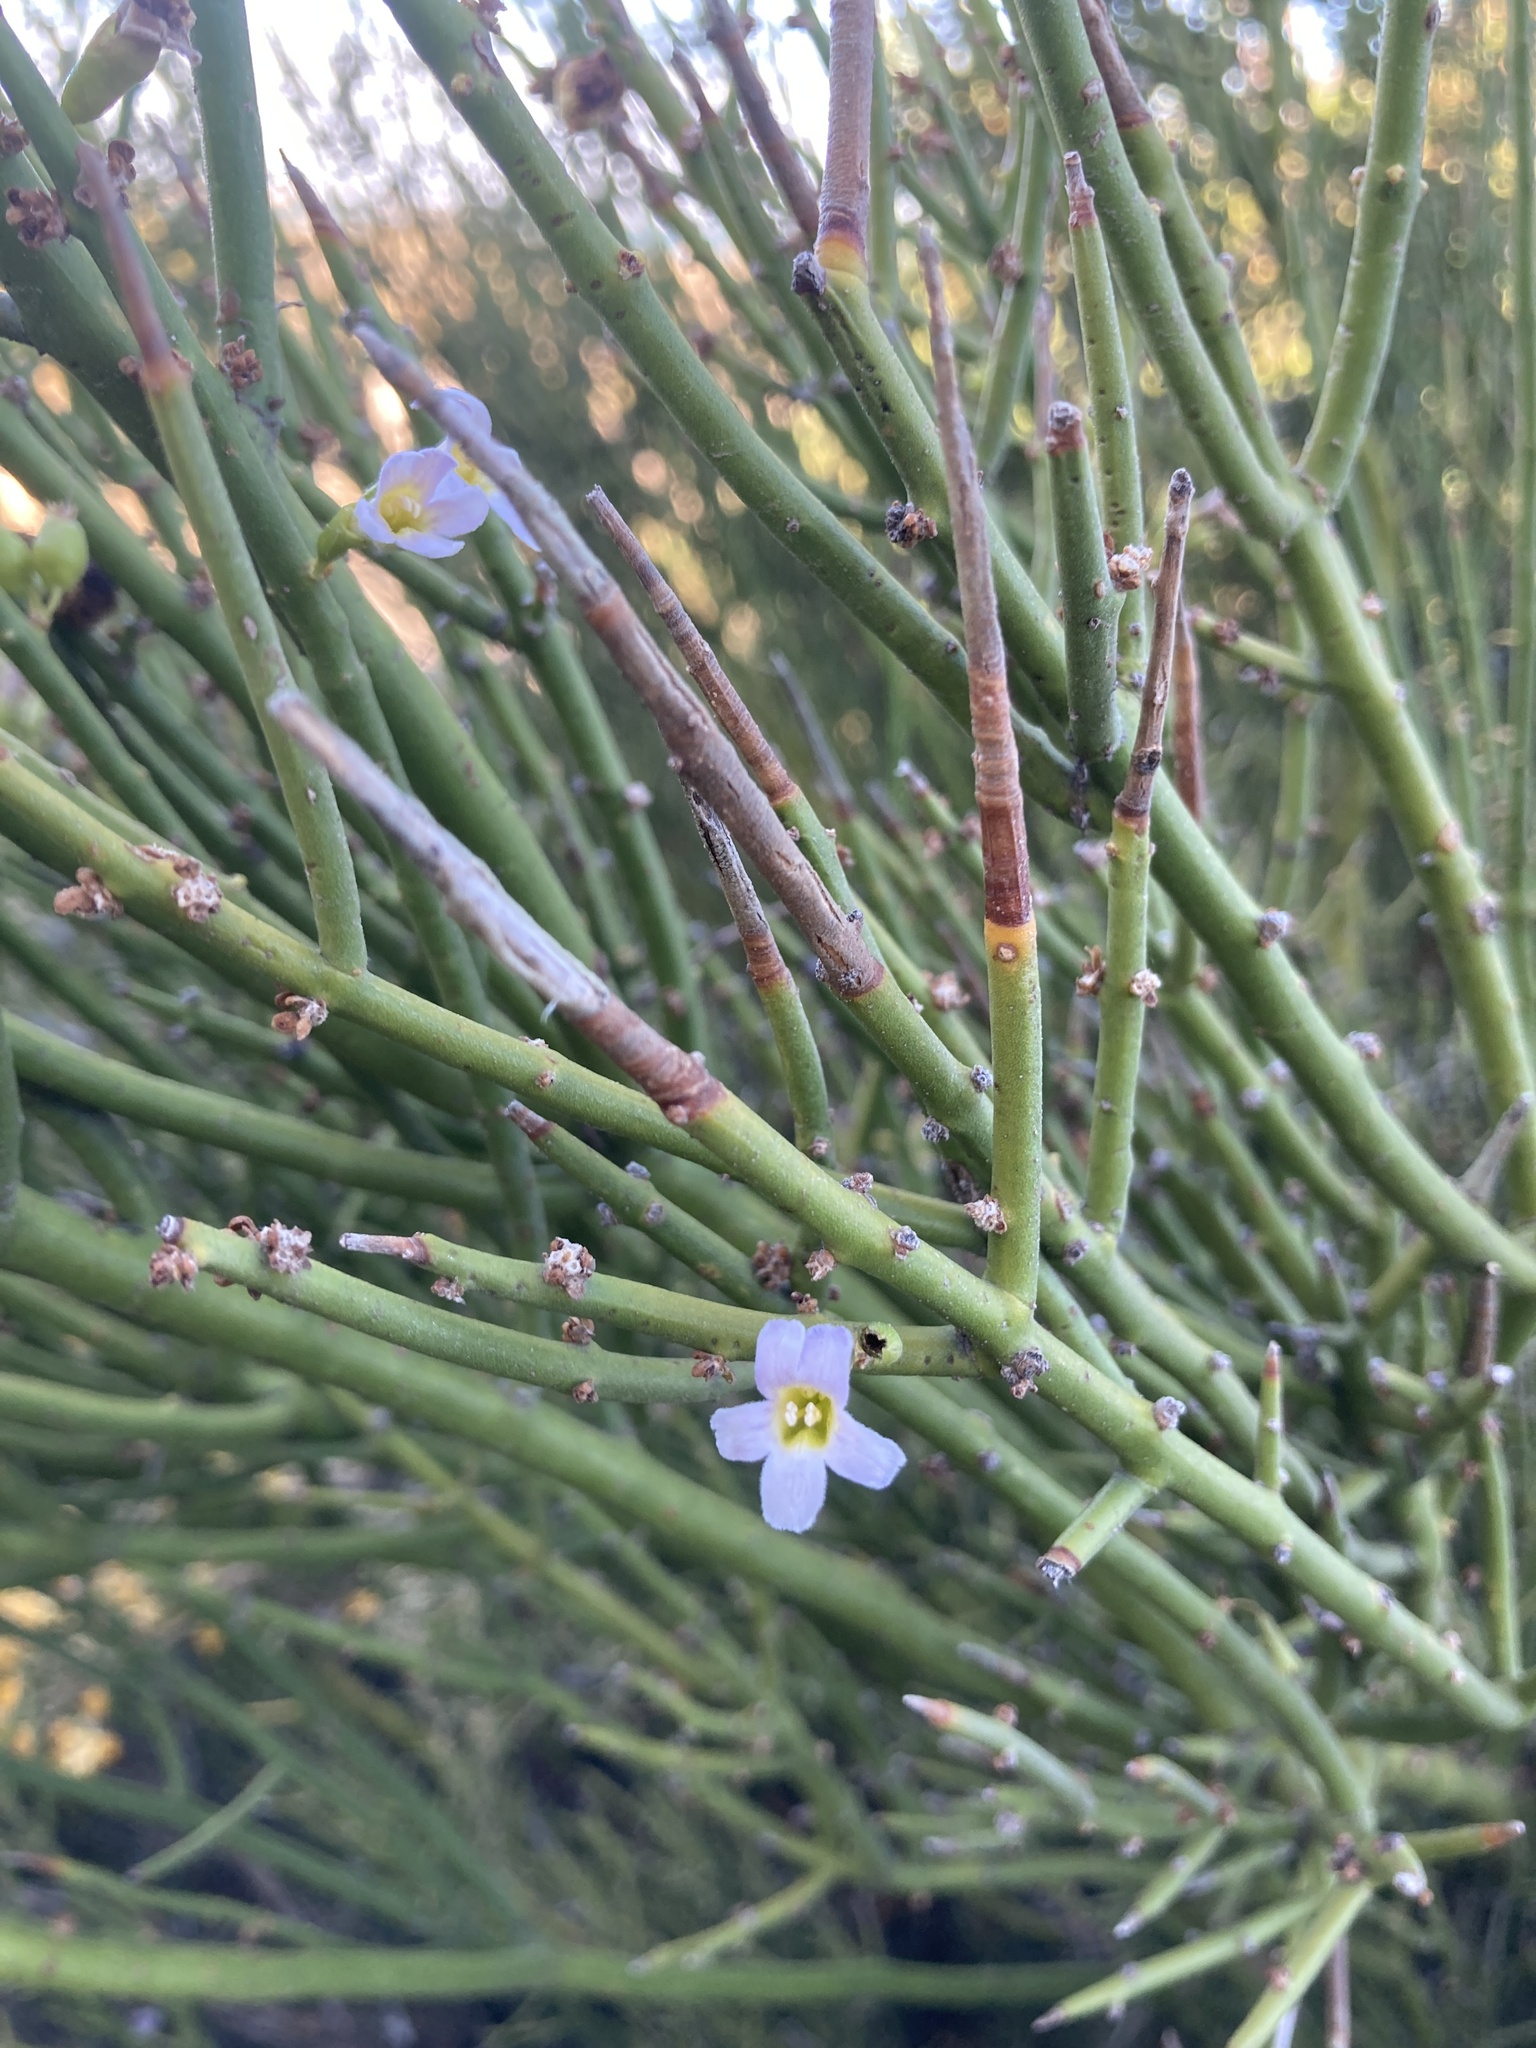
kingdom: Plantae
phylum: Tracheophyta
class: Magnoliopsida
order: Lamiales
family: Plantaginaceae
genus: Monttea
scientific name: Monttea aphylla
